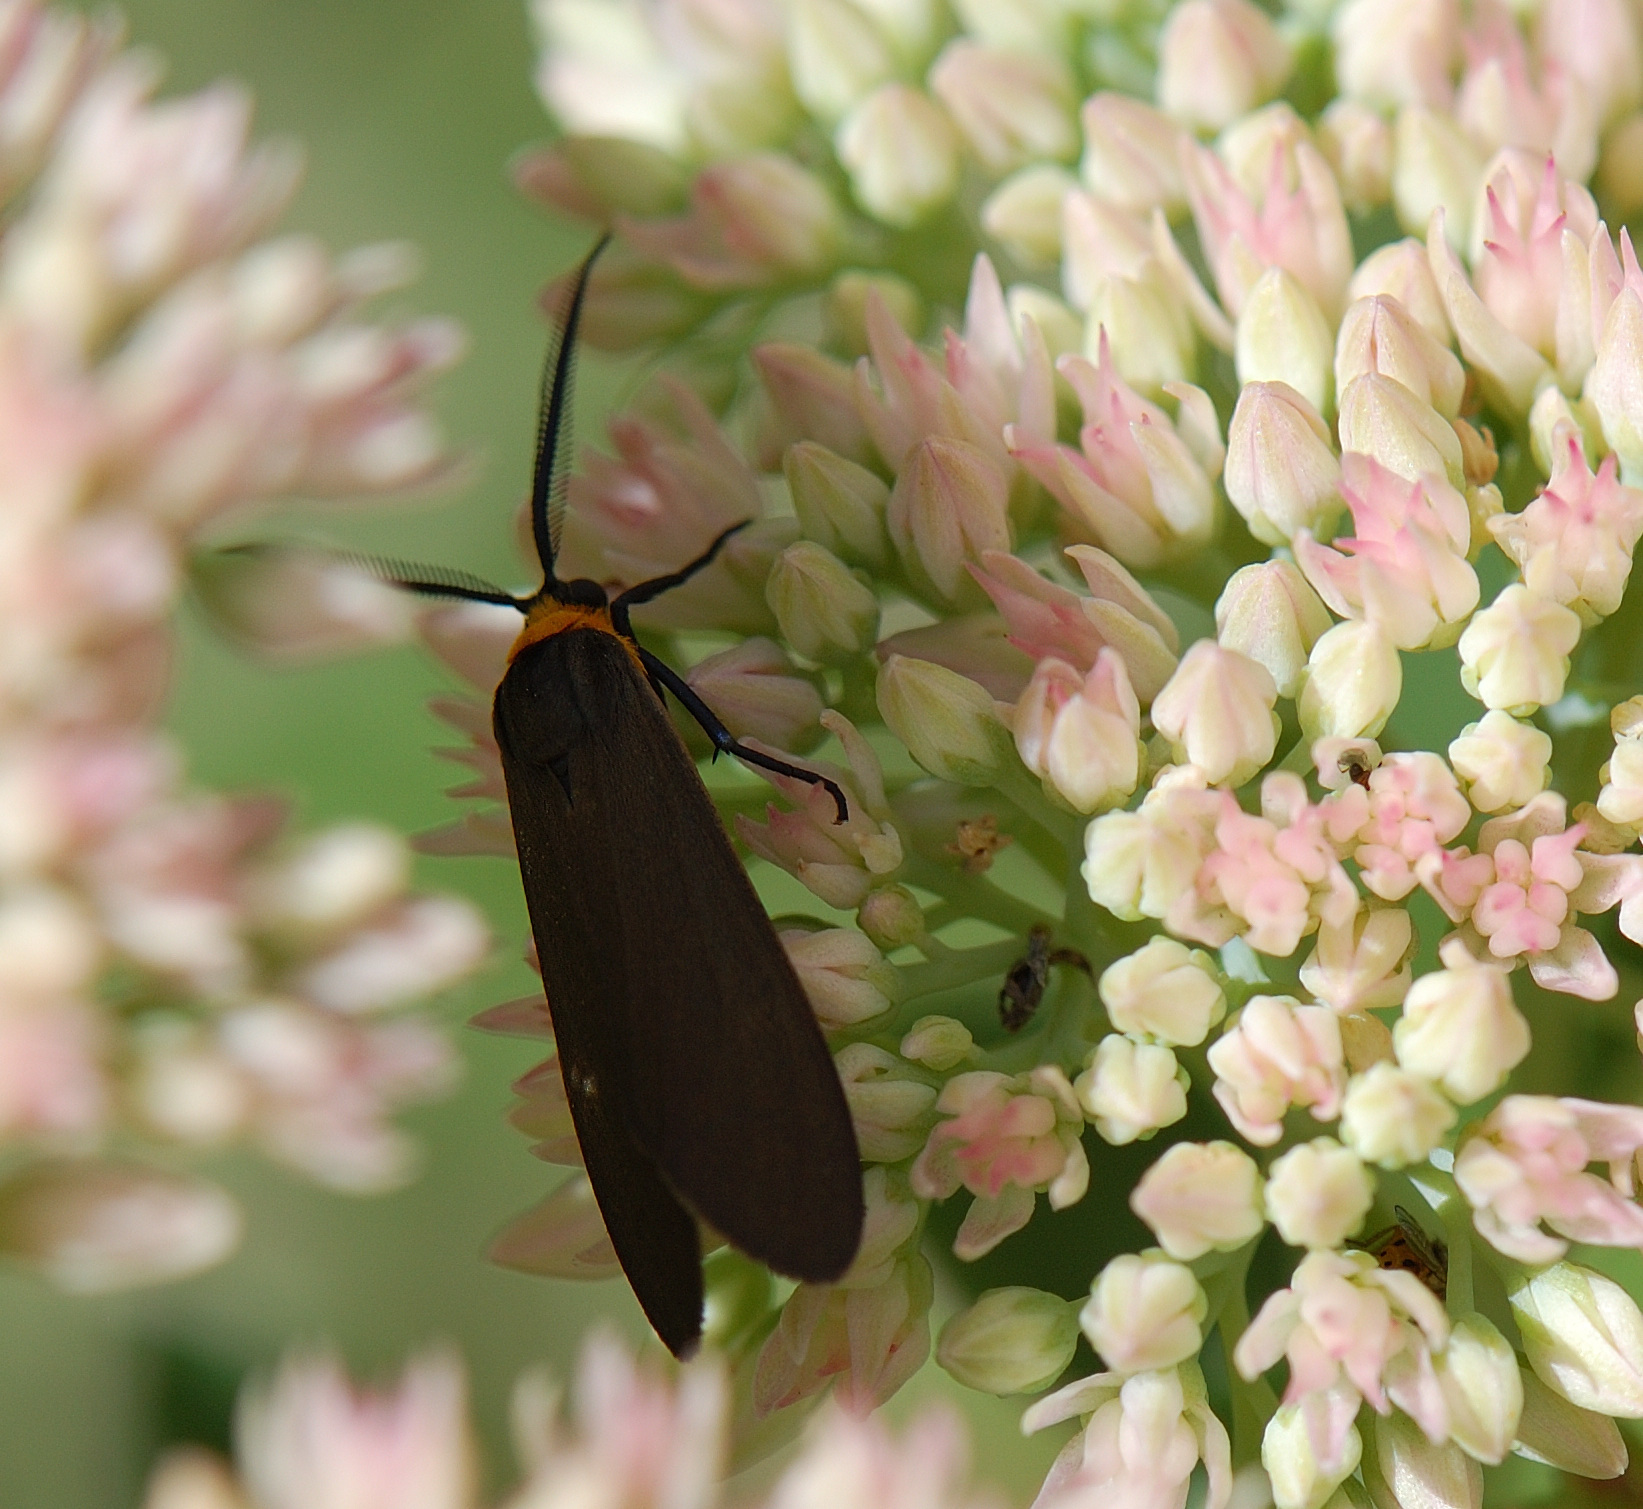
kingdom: Animalia
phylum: Arthropoda
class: Insecta
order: Lepidoptera
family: Erebidae
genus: Cisseps
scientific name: Cisseps fulvicollis
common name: Yellow-collared scape moth
